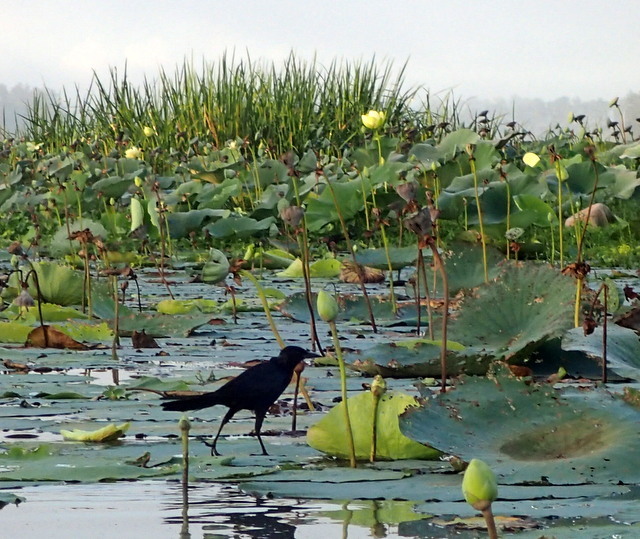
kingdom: Animalia
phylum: Chordata
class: Aves
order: Passeriformes
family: Icteridae
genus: Quiscalus
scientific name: Quiscalus major
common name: Boat-tailed grackle
